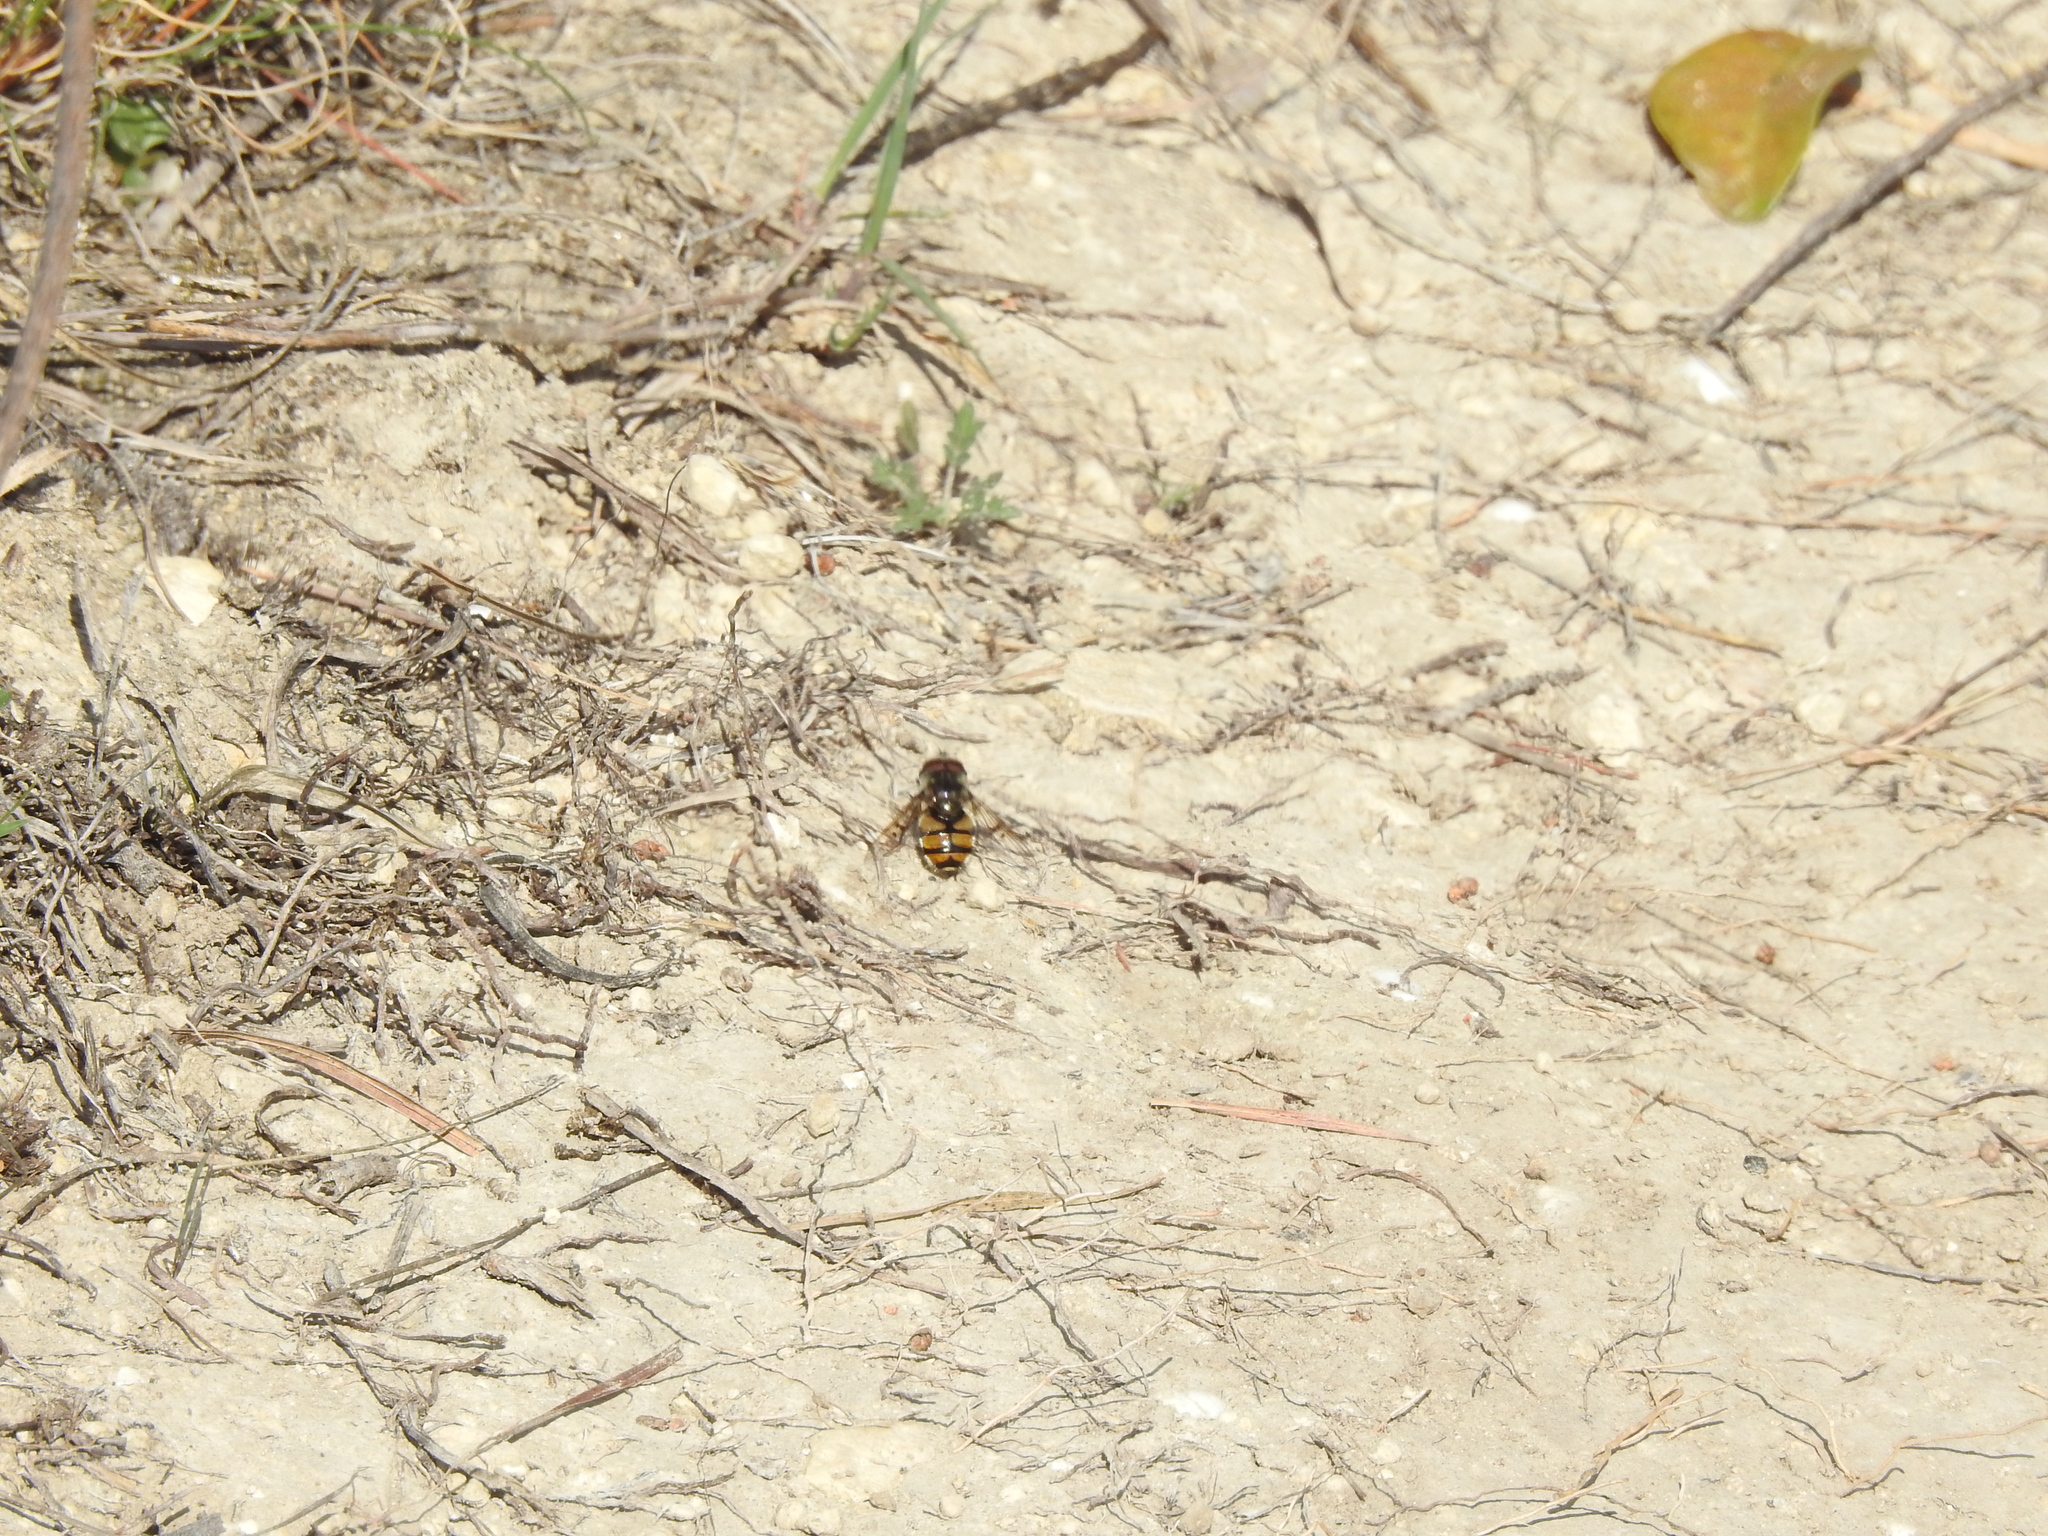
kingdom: Animalia
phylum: Arthropoda
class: Insecta
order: Diptera
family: Syrphidae
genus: Copestylum
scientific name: Copestylum avidum
